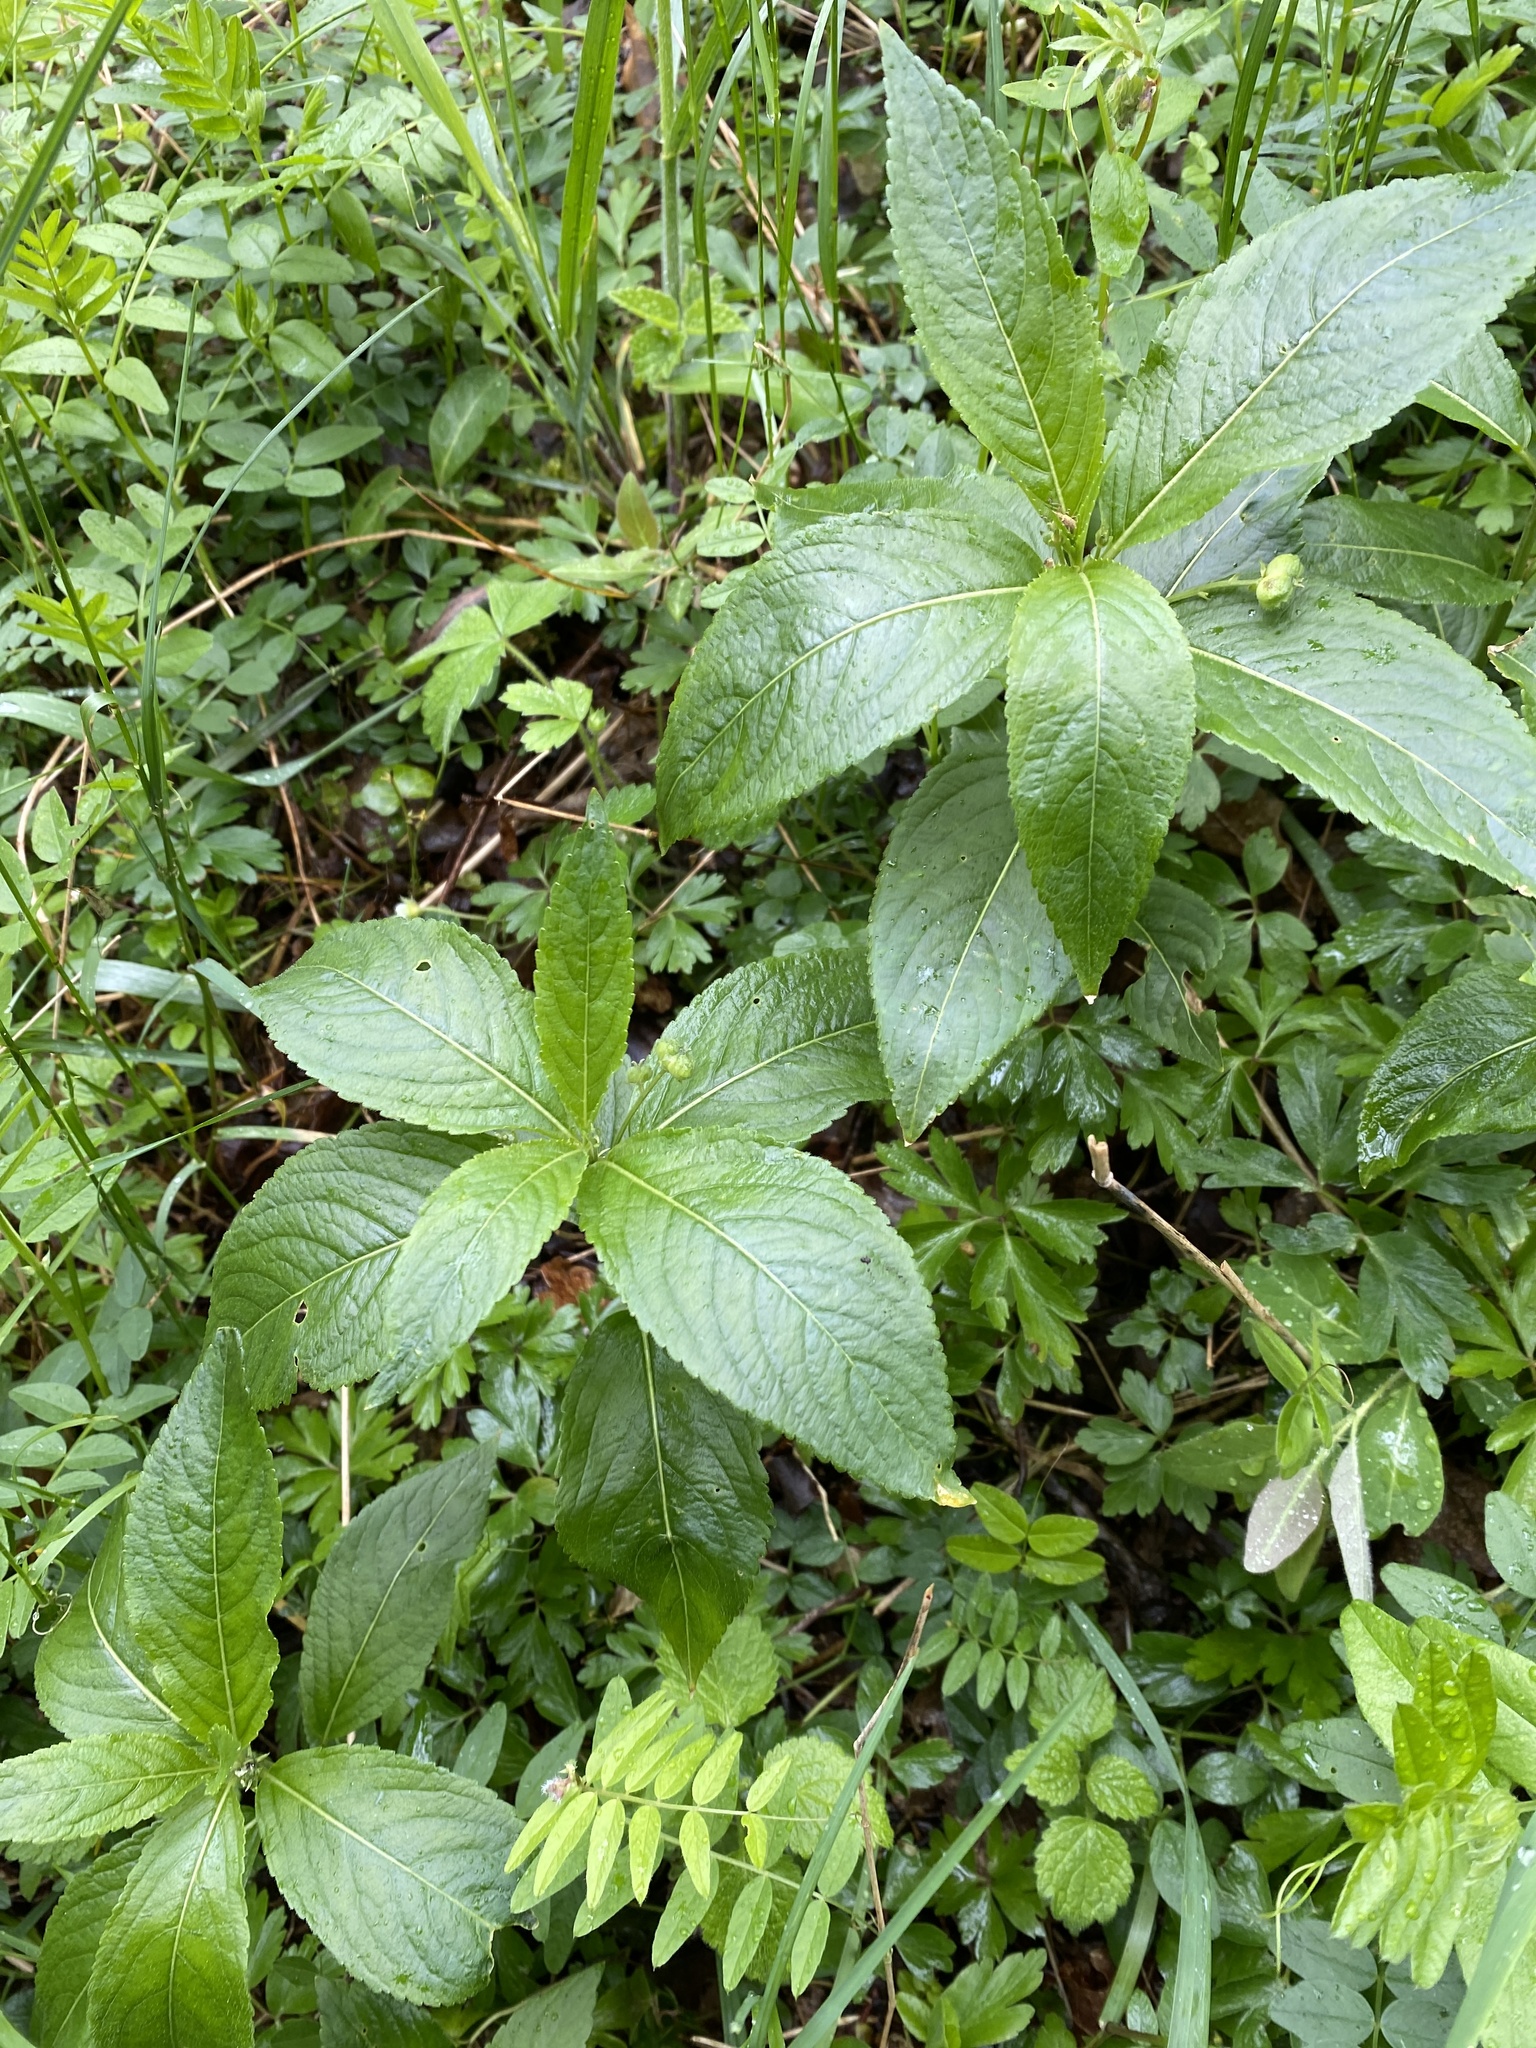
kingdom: Plantae
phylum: Tracheophyta
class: Magnoliopsida
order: Malpighiales
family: Euphorbiaceae
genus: Mercurialis
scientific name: Mercurialis perennis
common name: Dog mercury
